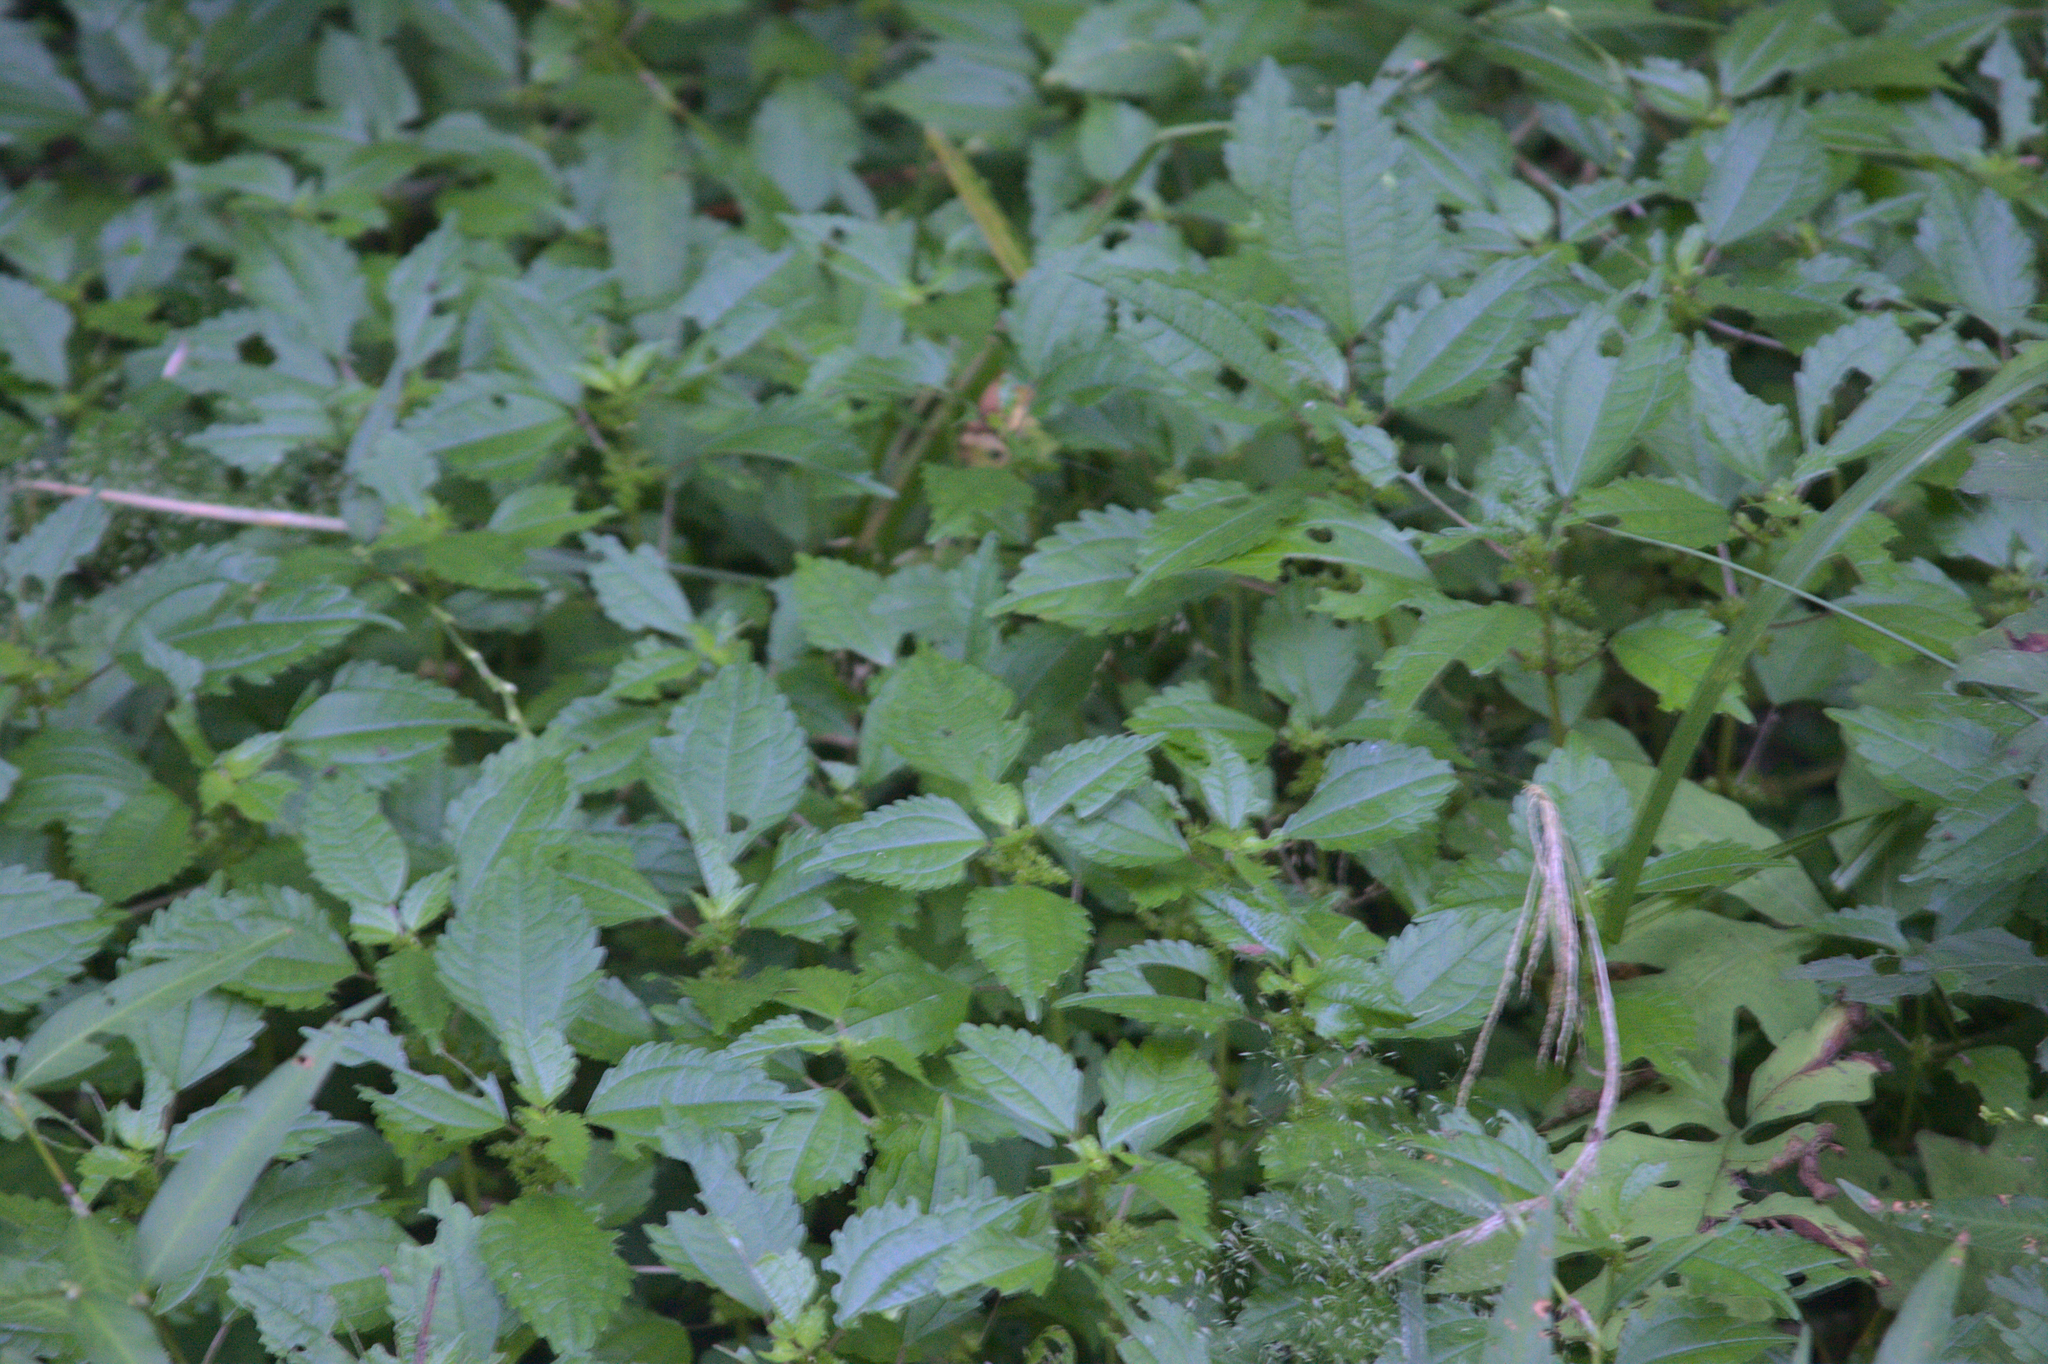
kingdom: Plantae
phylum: Tracheophyta
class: Magnoliopsida
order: Rosales
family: Urticaceae
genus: Pilea
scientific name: Pilea pumila
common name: Clearweed
